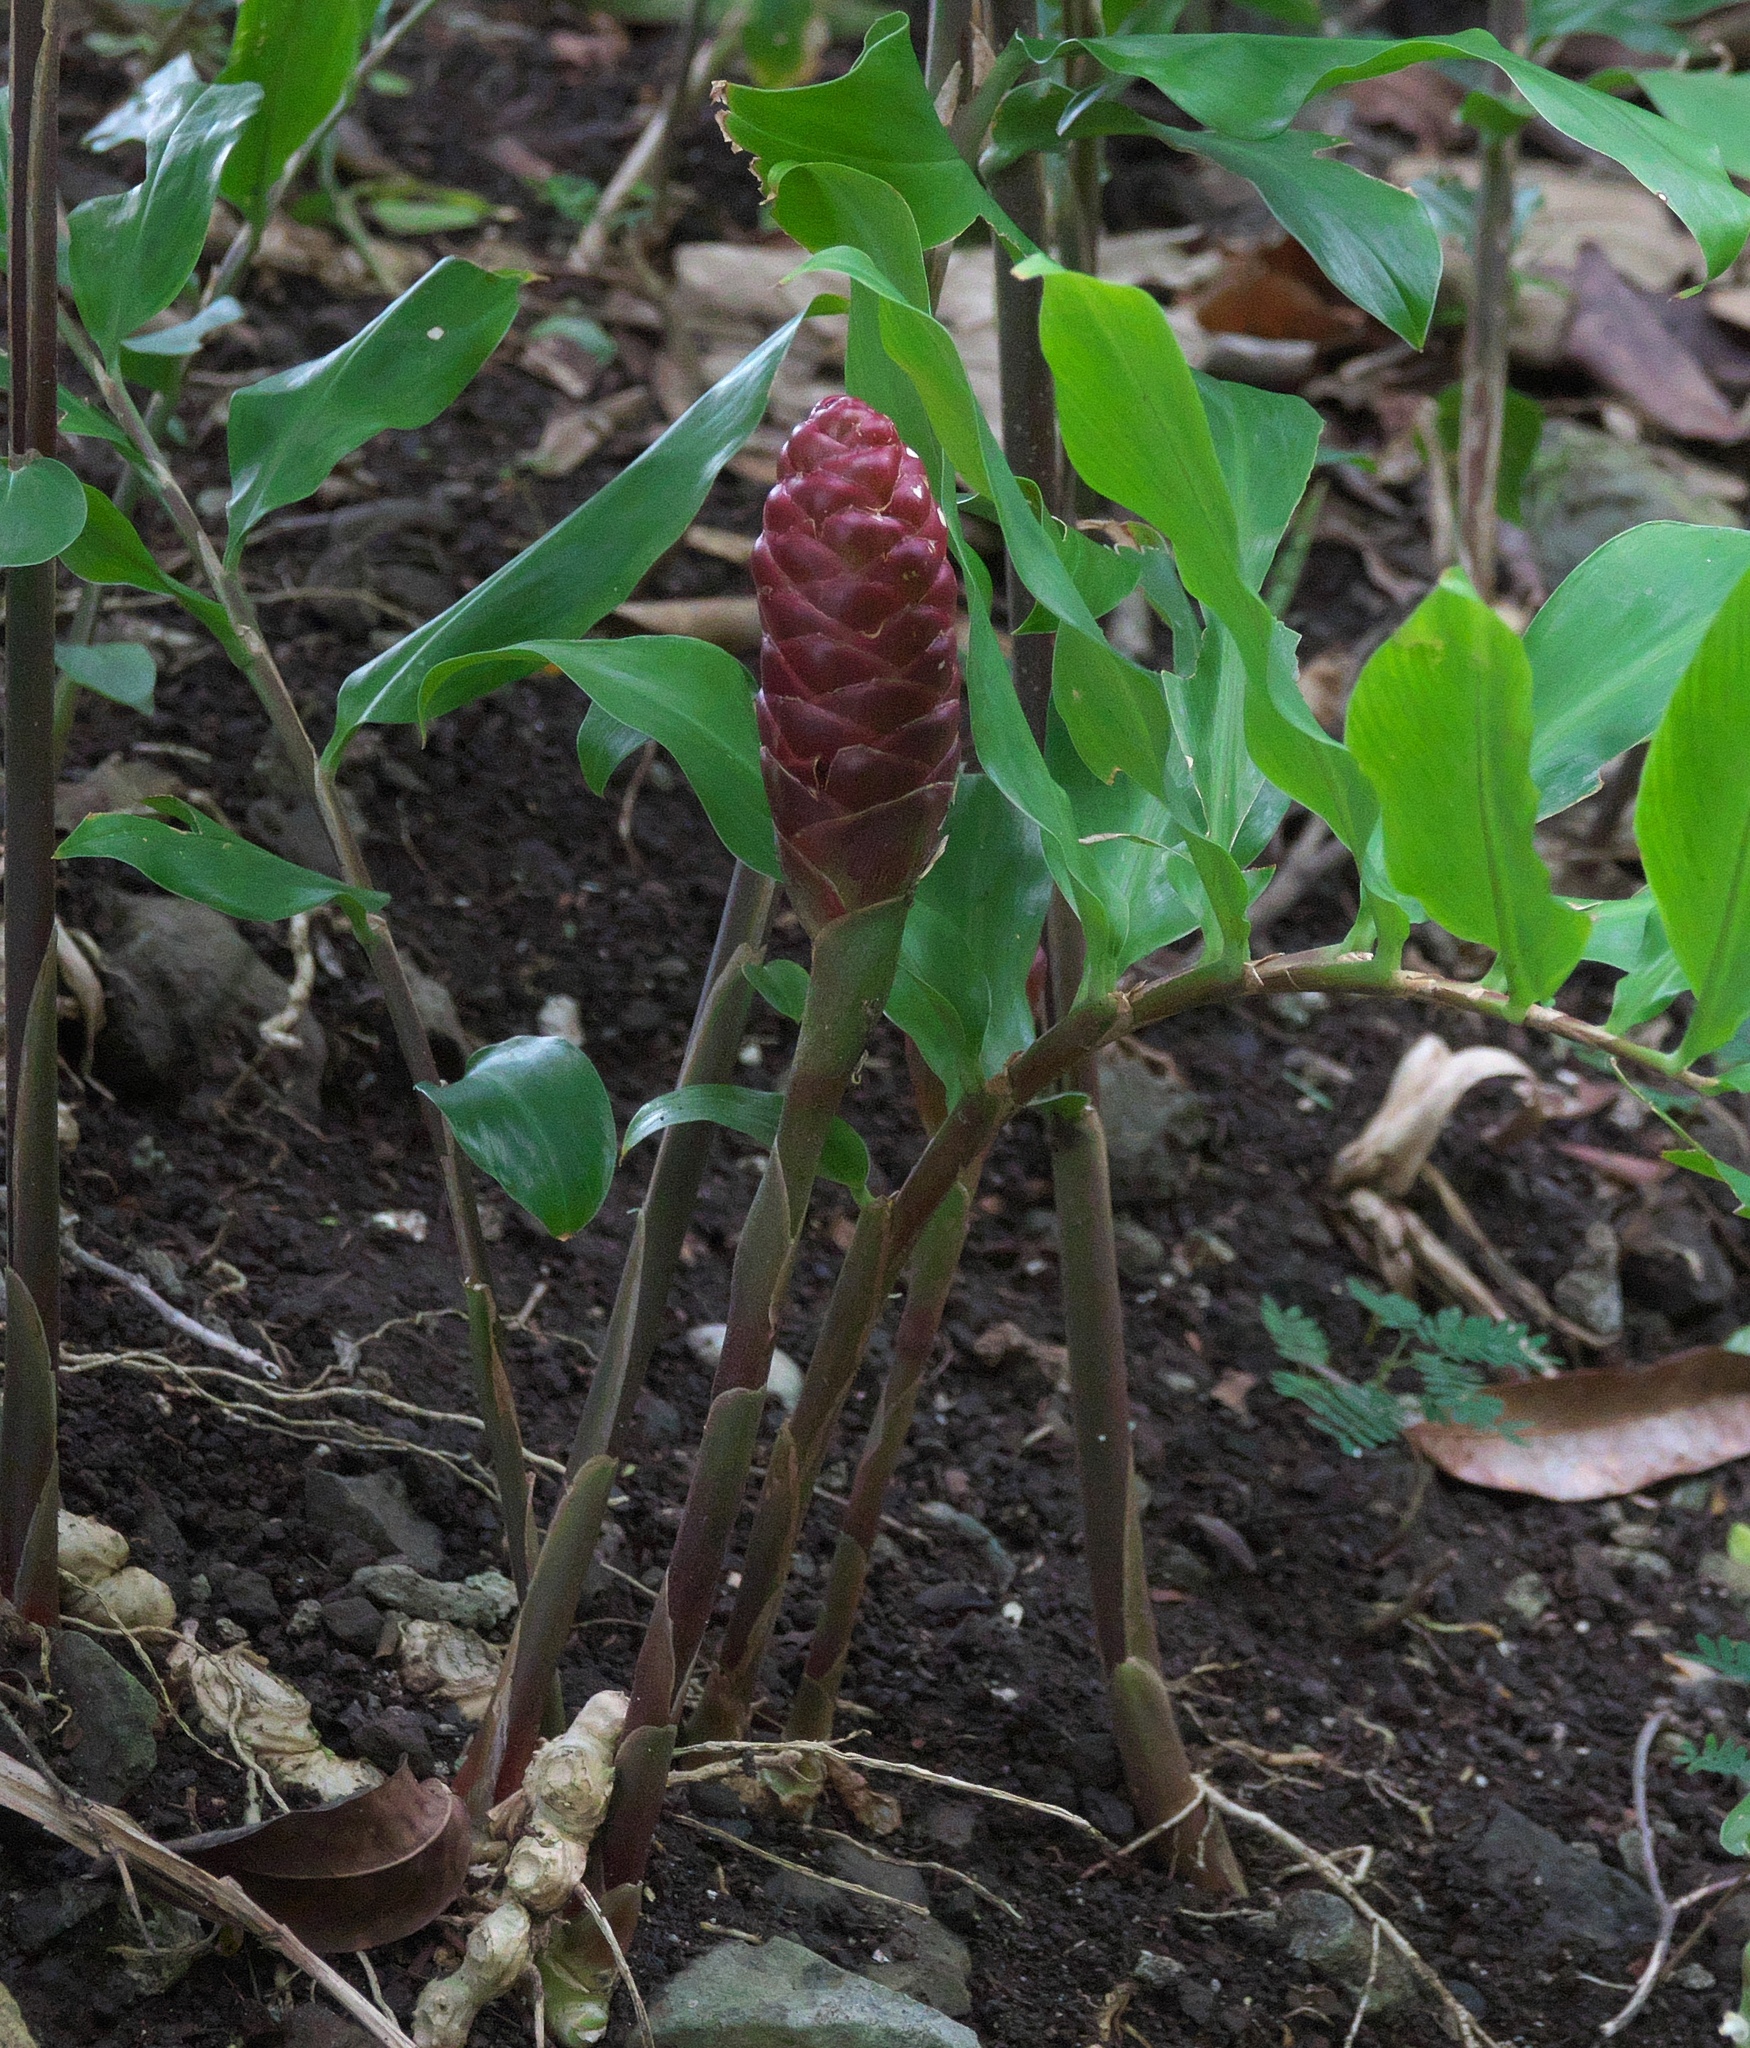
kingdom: Plantae
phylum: Tracheophyta
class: Liliopsida
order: Zingiberales
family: Zingiberaceae
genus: Zingiber
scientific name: Zingiber zerumbet
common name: Bitter ginger
